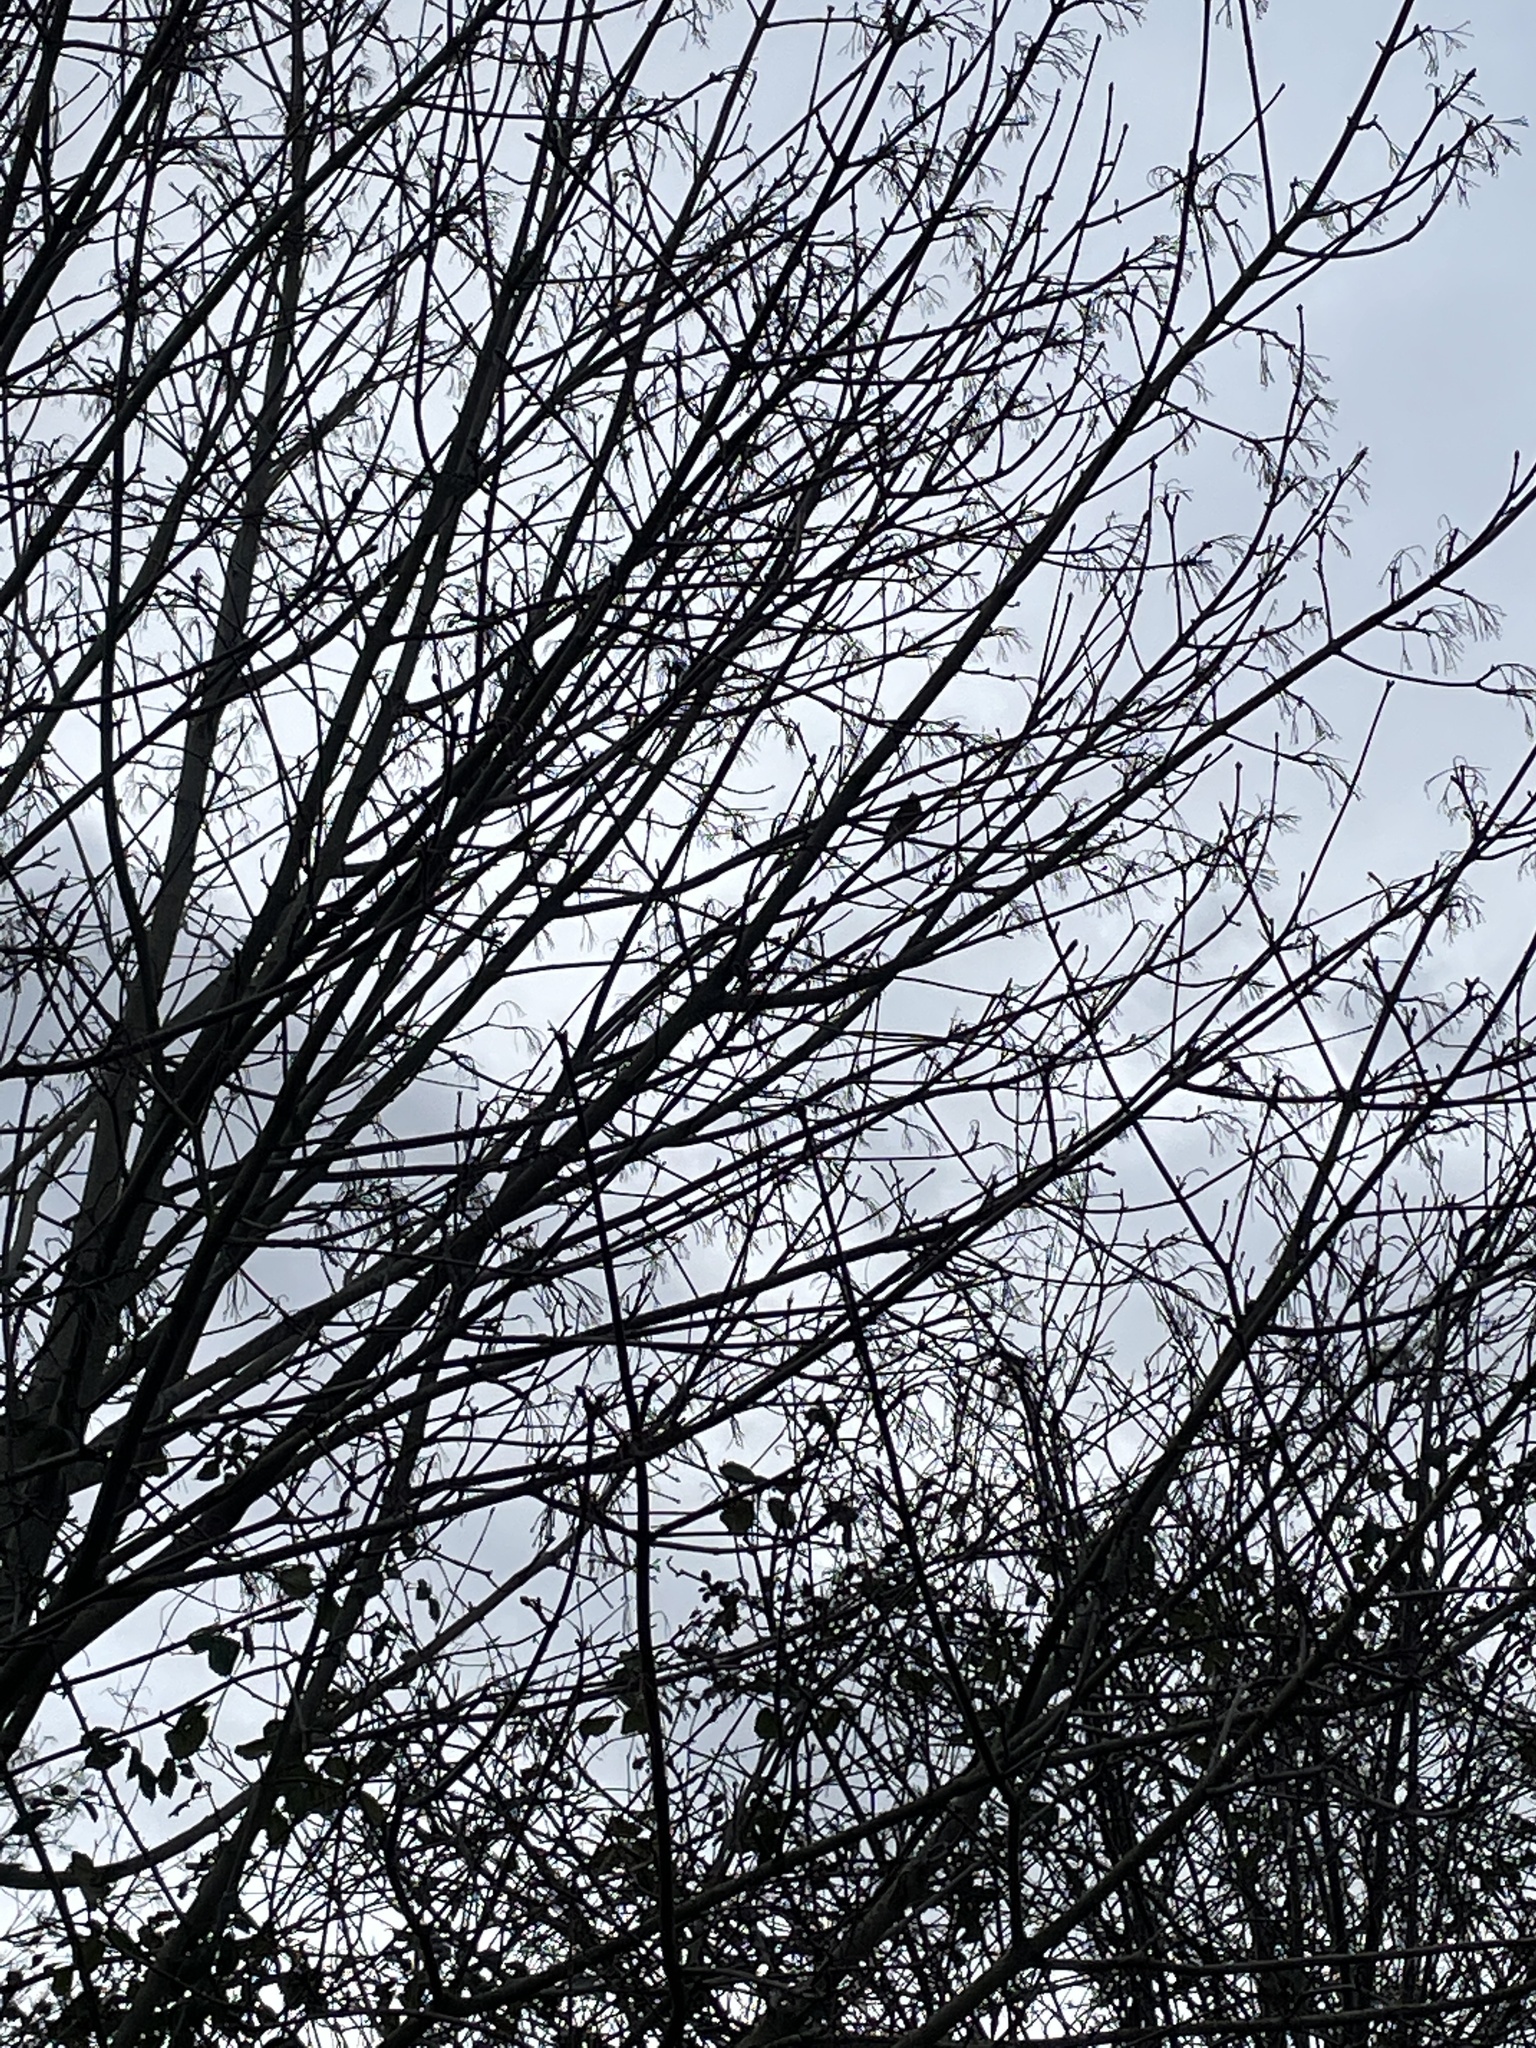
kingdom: Animalia
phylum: Chordata
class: Aves
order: Passeriformes
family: Muscicapidae
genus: Erithacus
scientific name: Erithacus rubecula
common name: European robin
